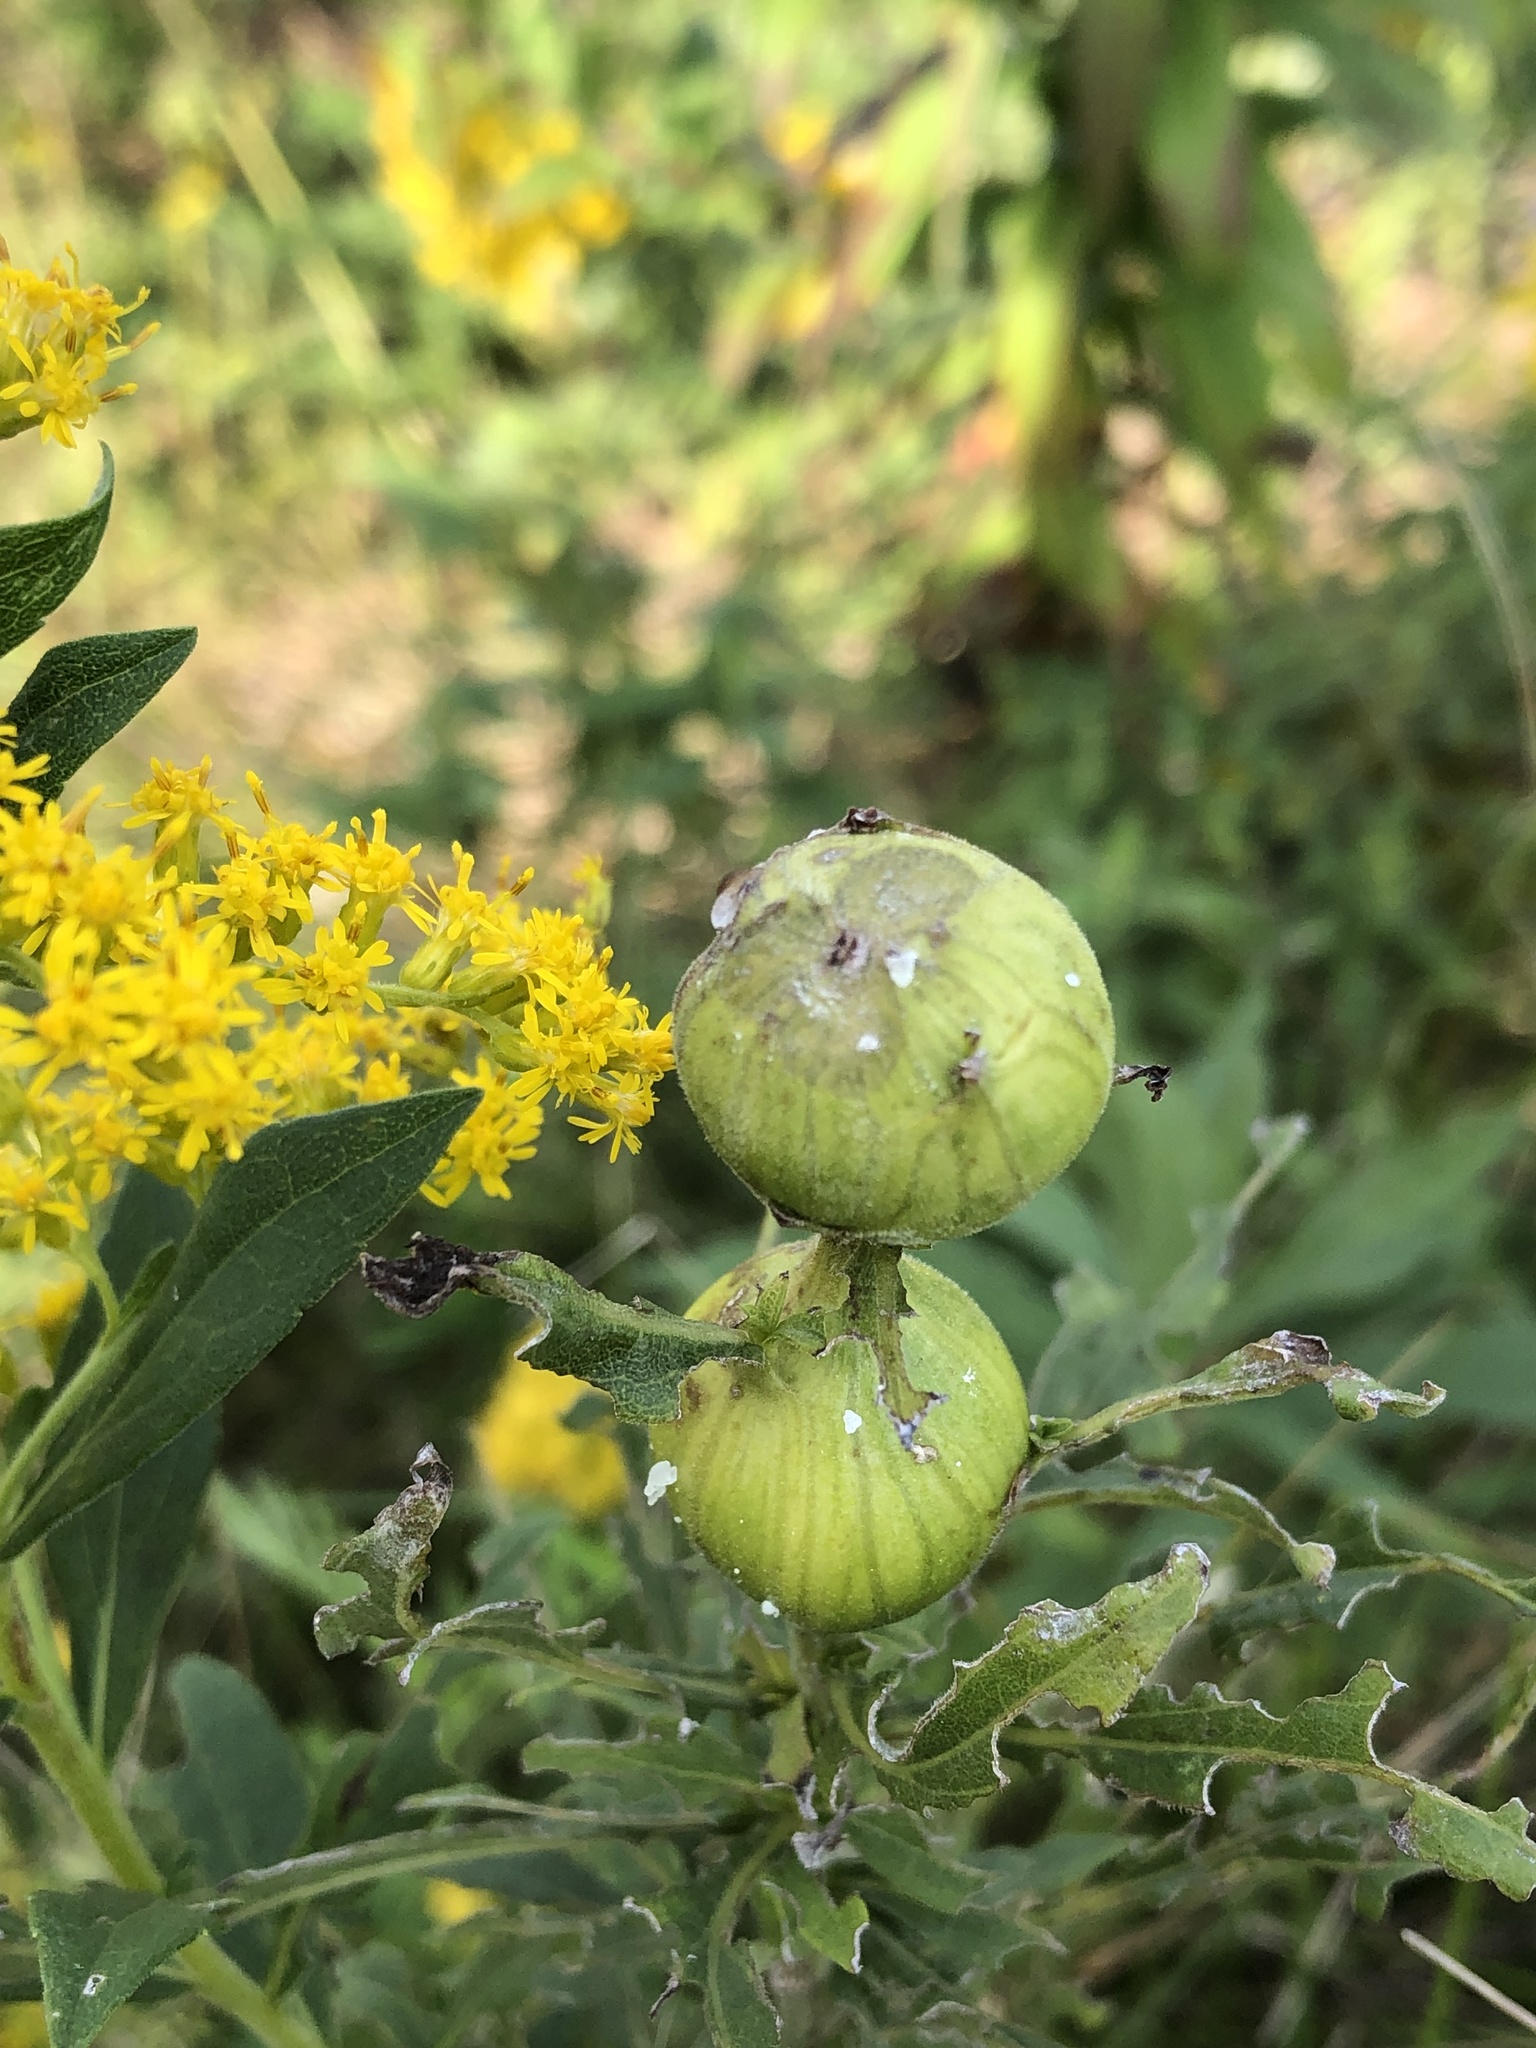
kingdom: Animalia
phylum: Arthropoda
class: Insecta
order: Diptera
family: Tephritidae
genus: Eurosta
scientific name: Eurosta solidaginis
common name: Goldenrod gall fly
